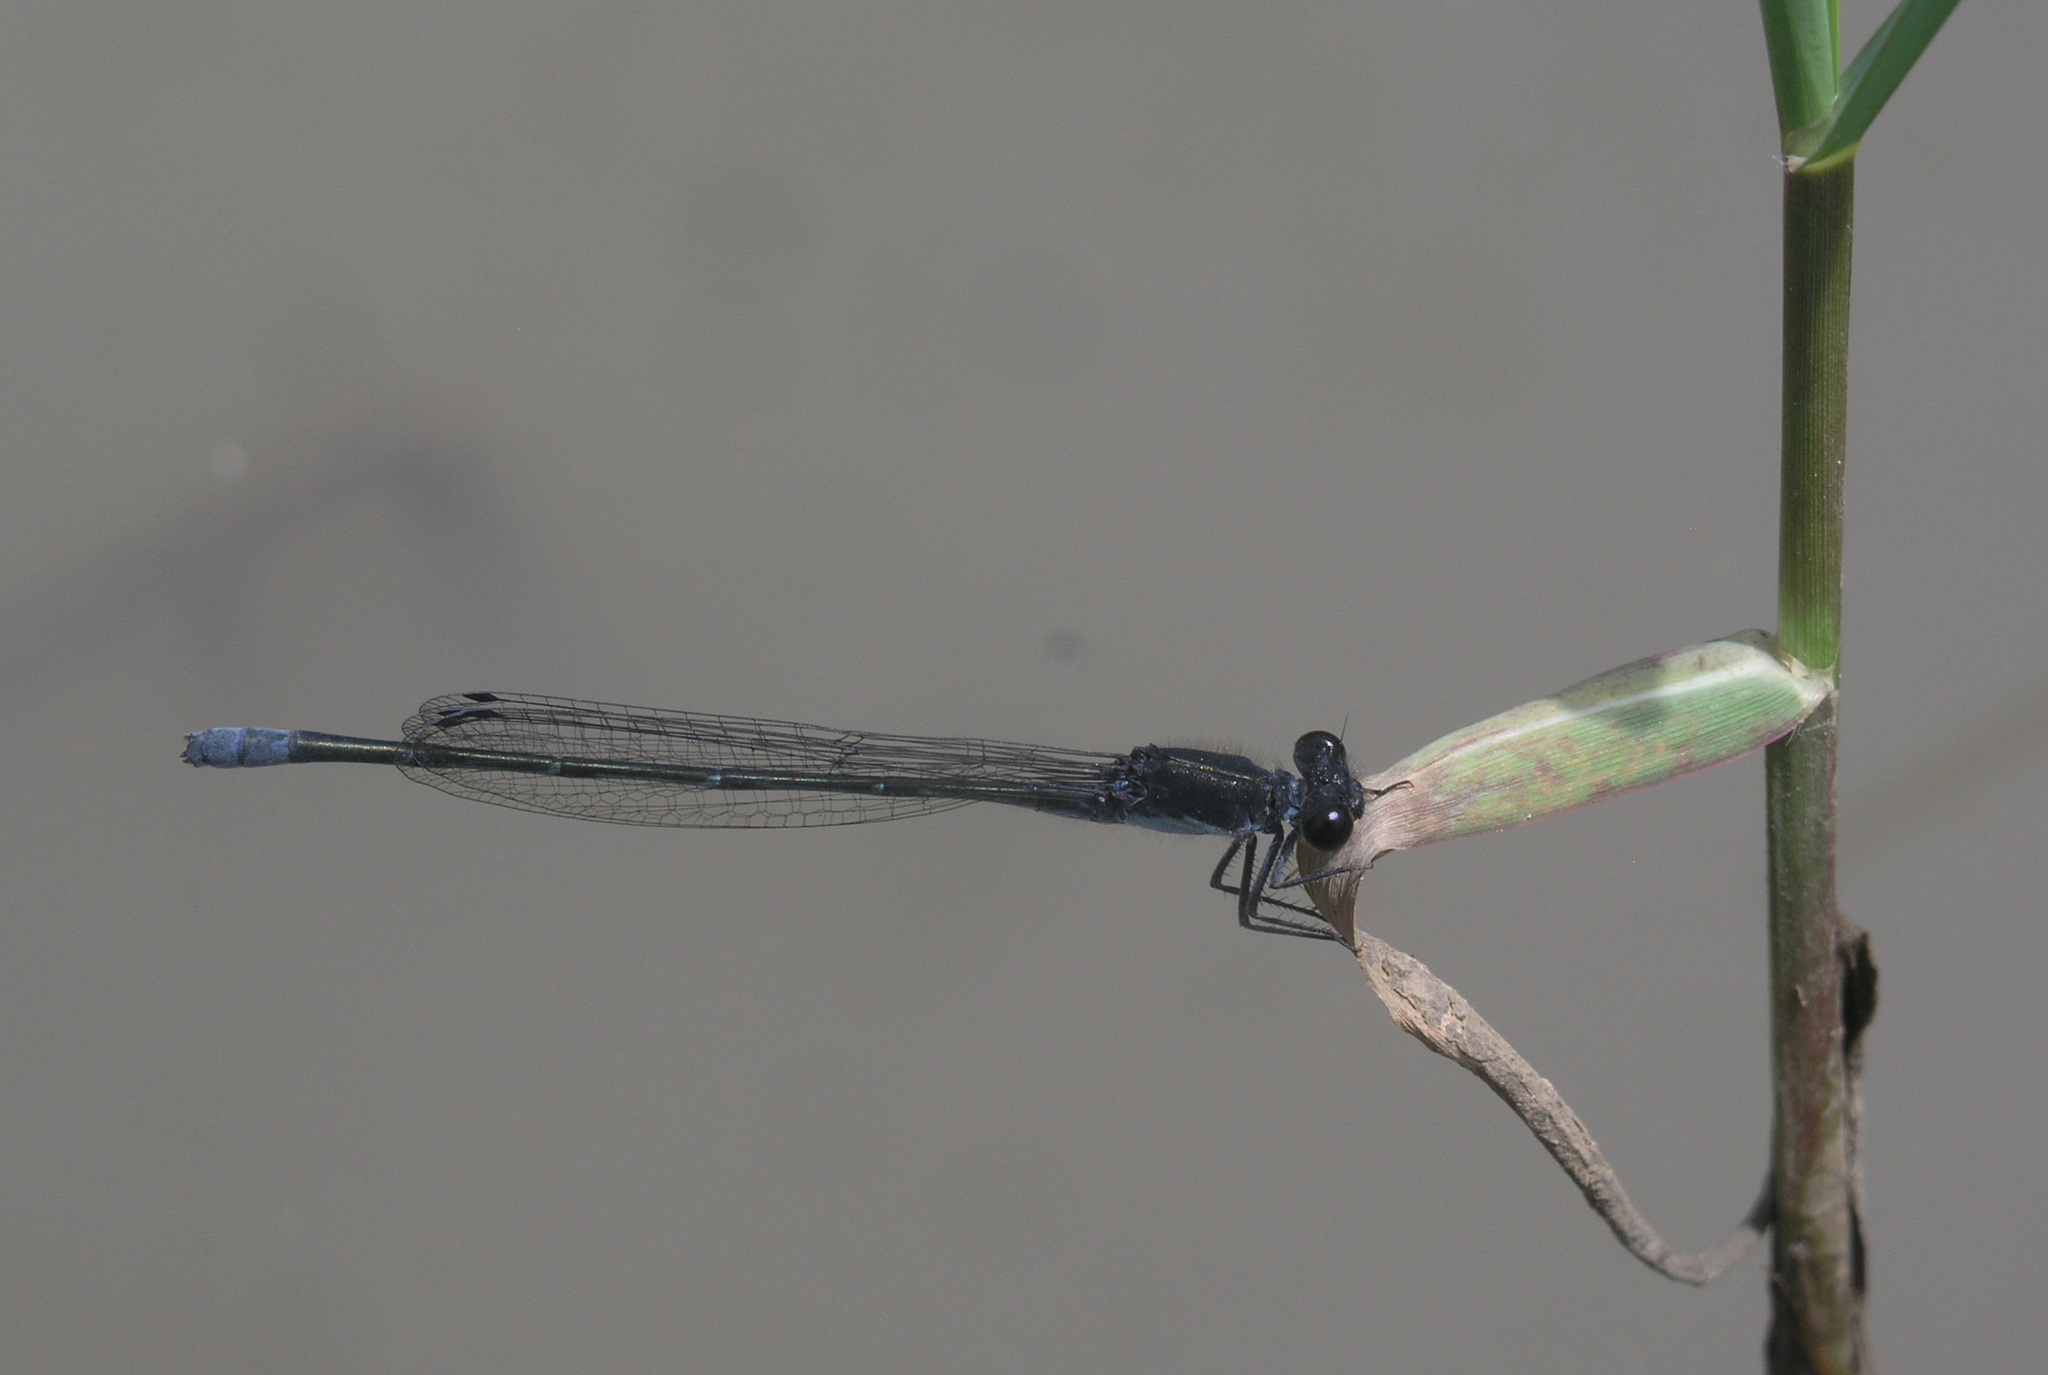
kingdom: Animalia
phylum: Arthropoda
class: Insecta
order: Odonata
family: Coenagrionidae
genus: Pseudagrion
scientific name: Pseudagrion commoniae
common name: Black sprite
